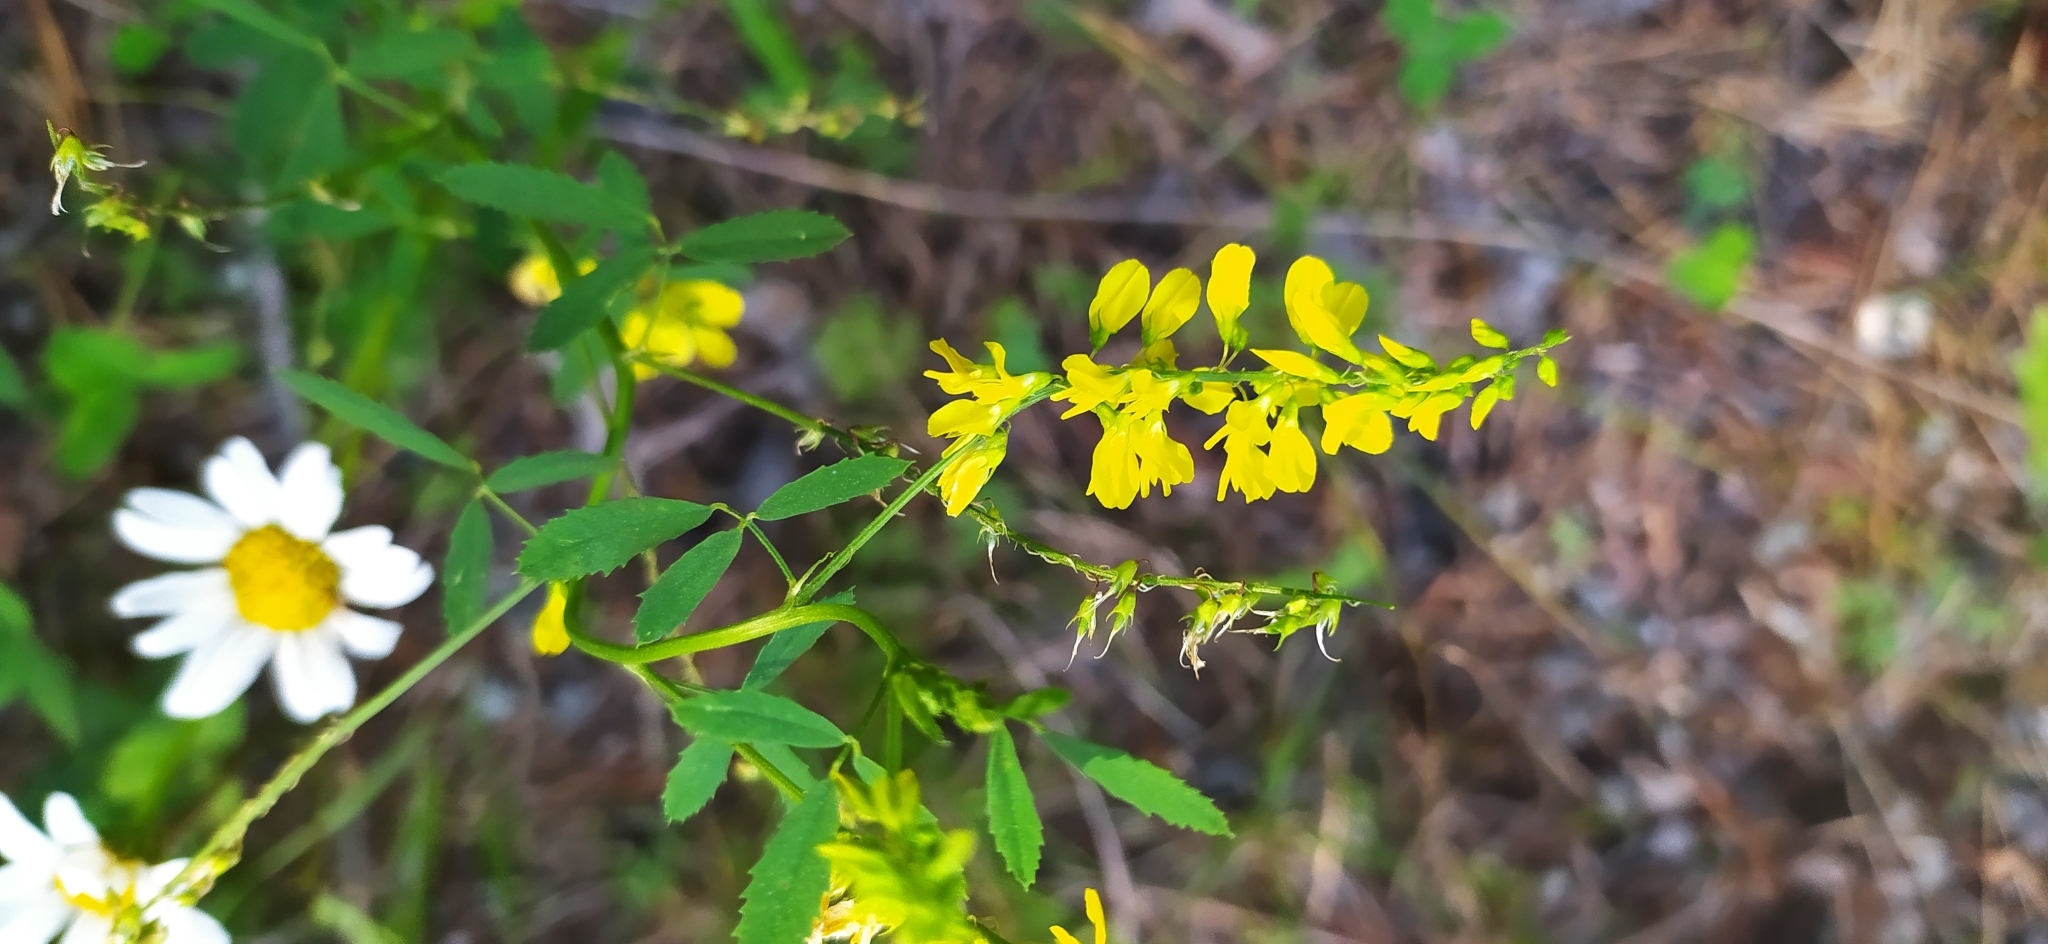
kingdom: Plantae
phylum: Tracheophyta
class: Magnoliopsida
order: Fabales
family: Fabaceae
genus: Melilotus
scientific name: Melilotus officinalis
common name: Sweetclover
